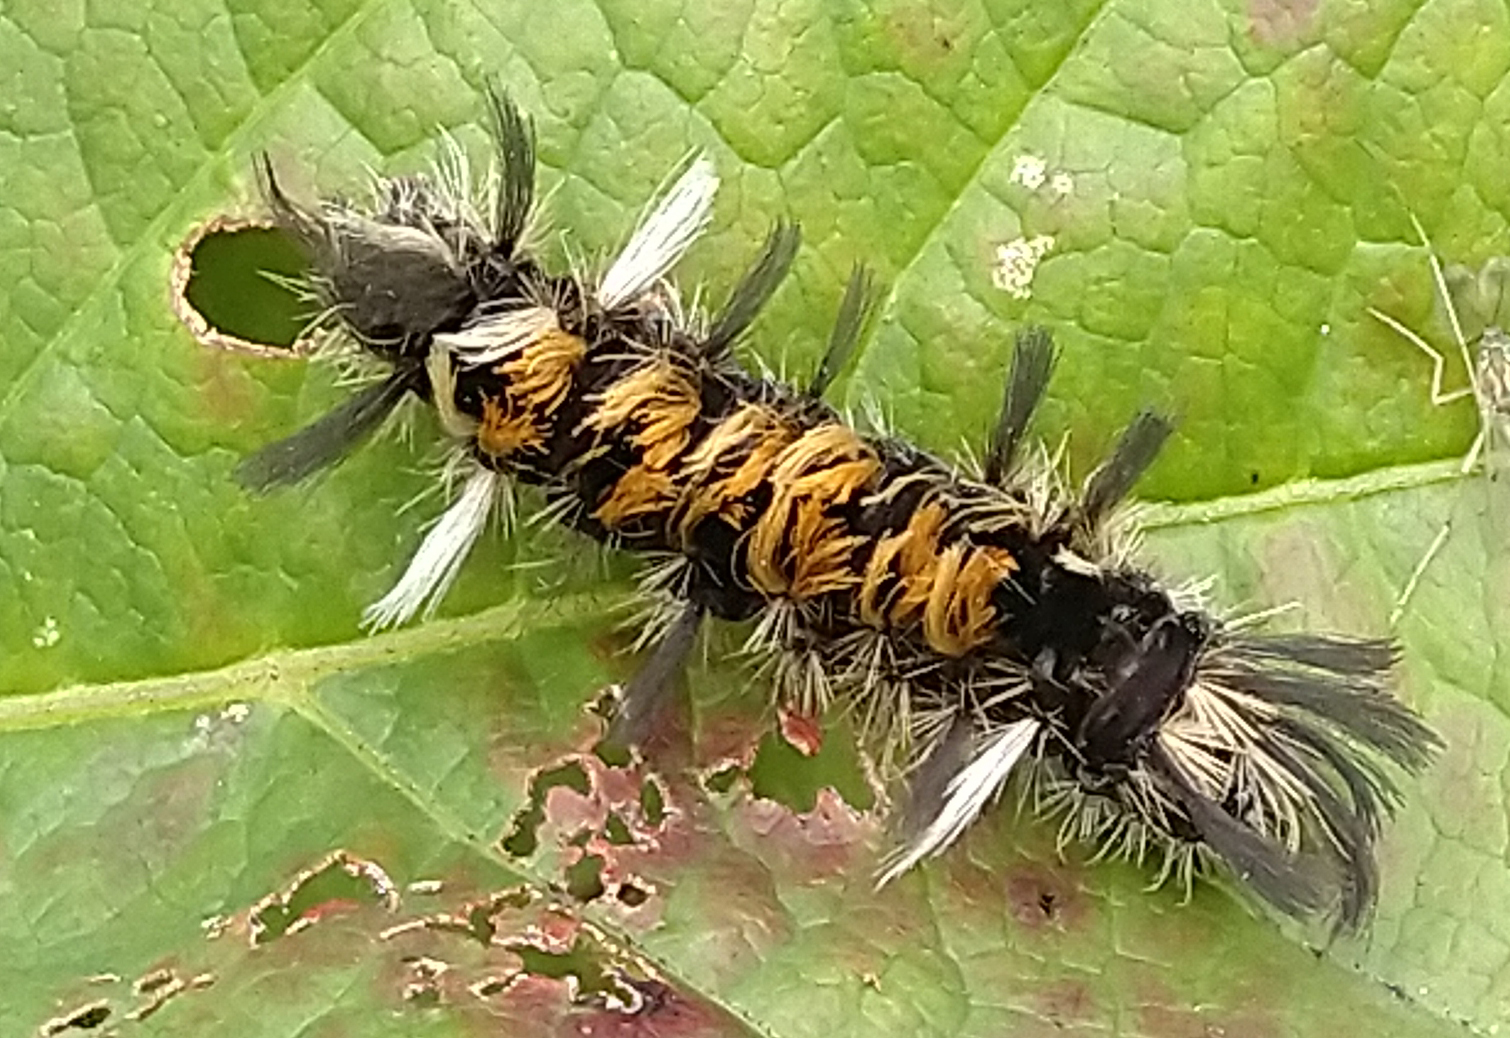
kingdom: Animalia
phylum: Arthropoda
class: Insecta
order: Lepidoptera
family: Erebidae
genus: Euchaetes
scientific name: Euchaetes egle
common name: Milkweed tussock moth
